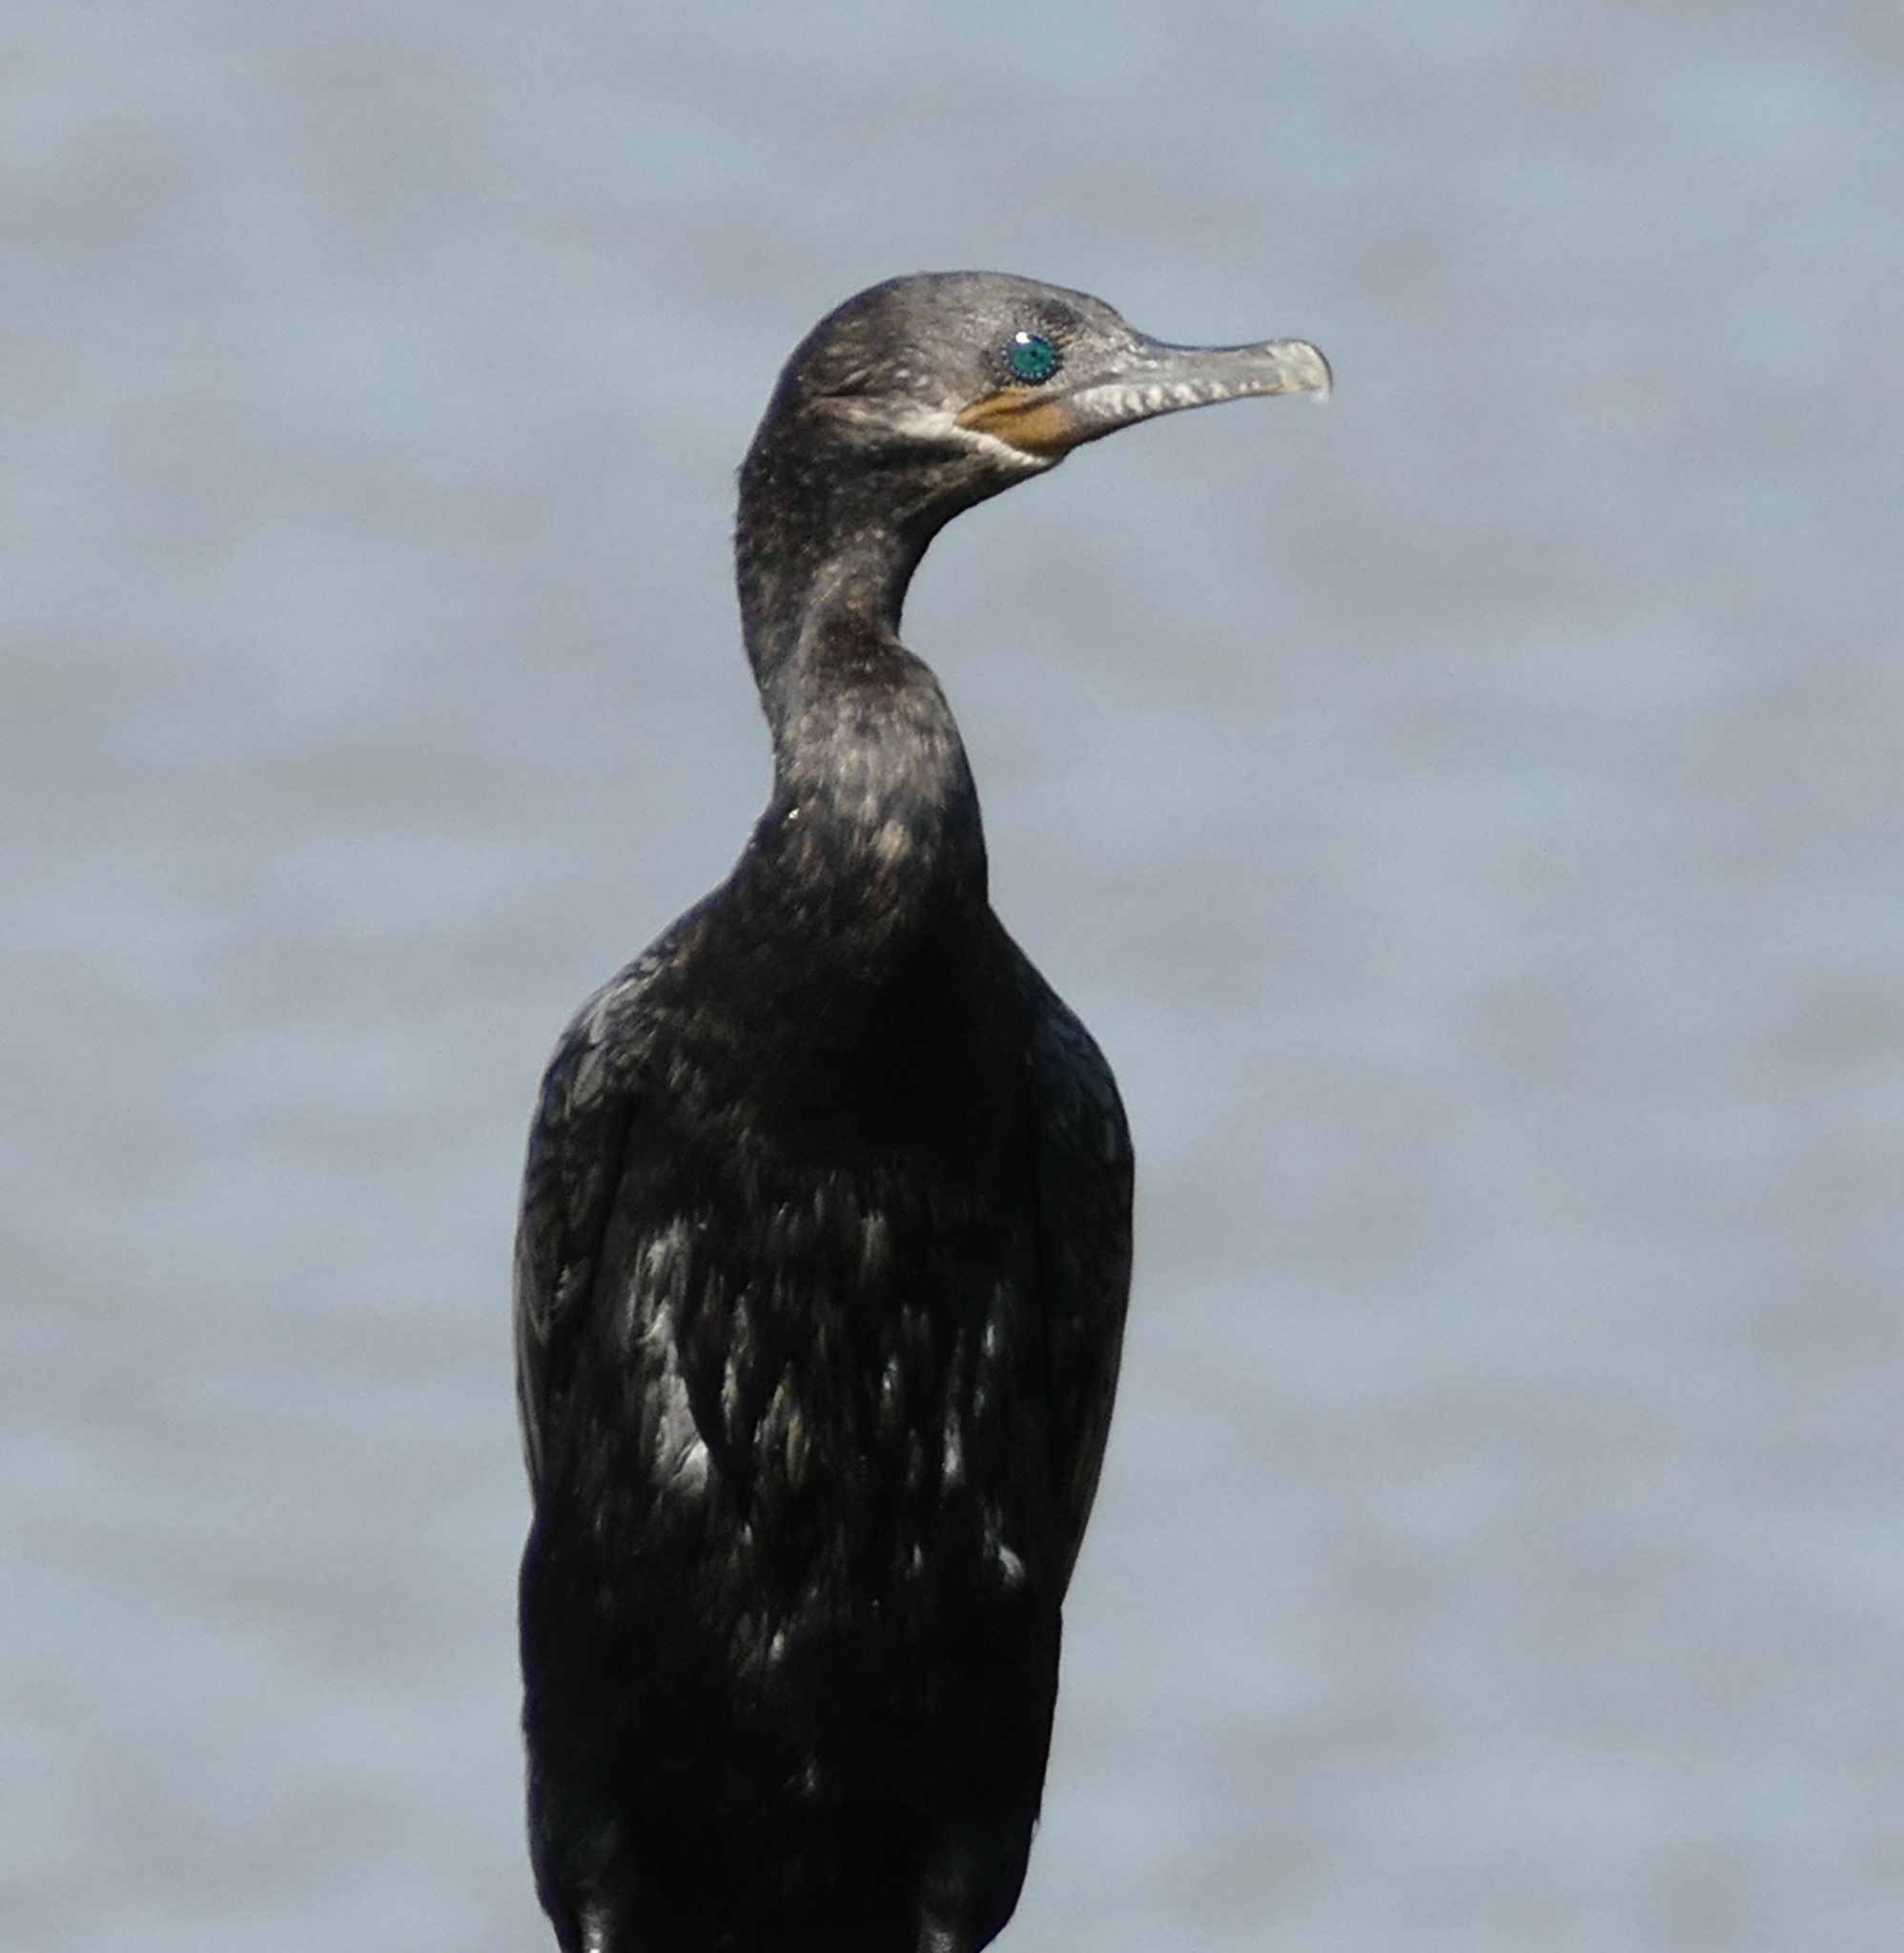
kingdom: Animalia
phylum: Chordata
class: Aves
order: Suliformes
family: Phalacrocoracidae
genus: Phalacrocorax
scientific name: Phalacrocorax brasilianus
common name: Neotropic cormorant
